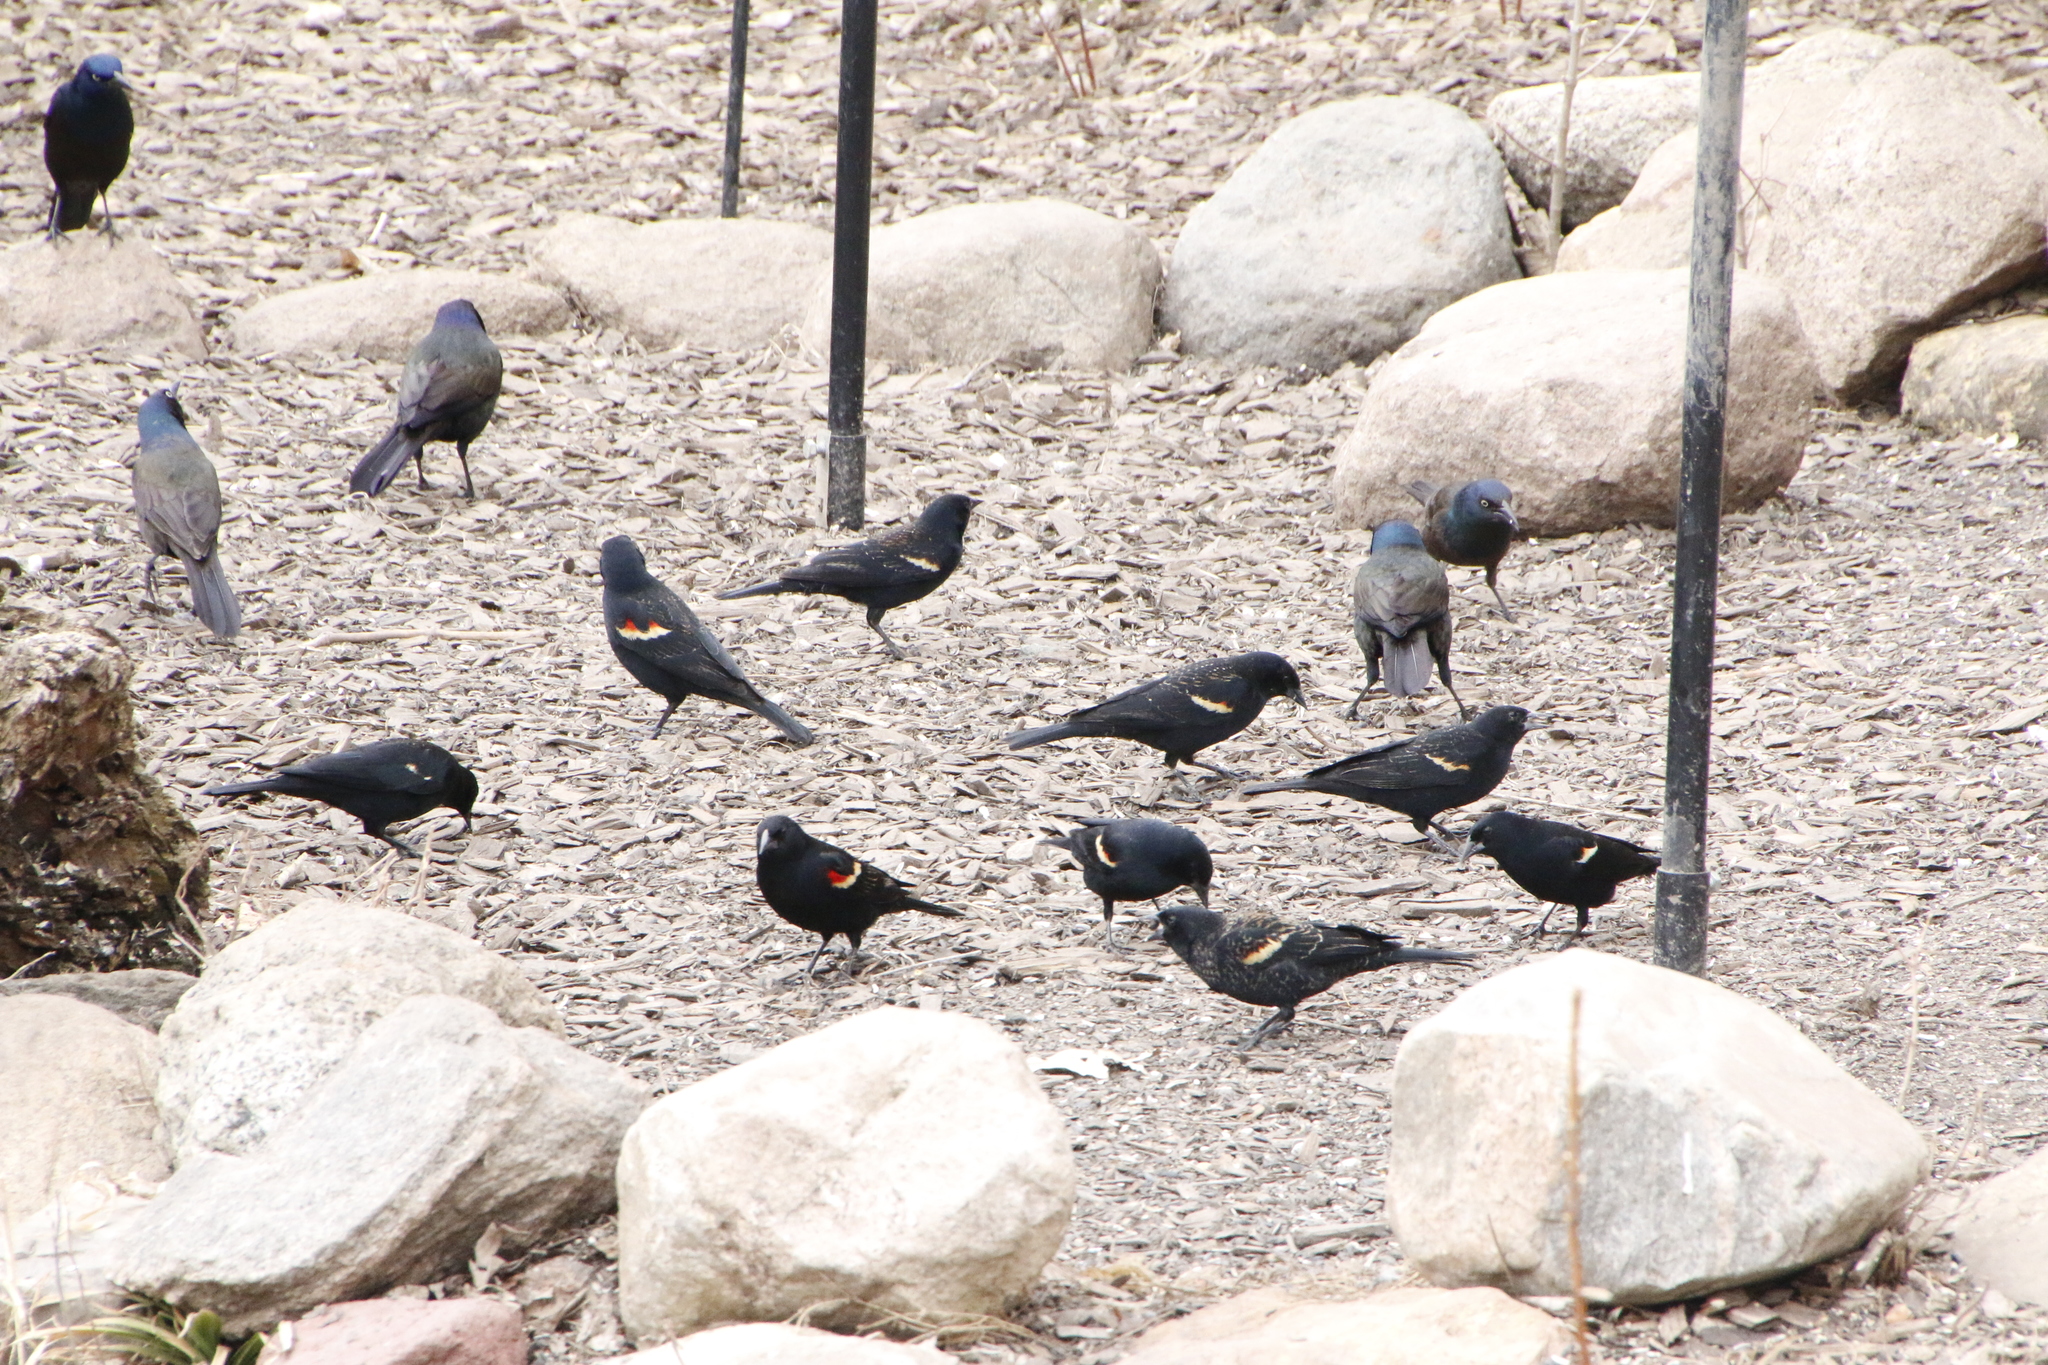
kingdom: Animalia
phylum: Chordata
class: Aves
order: Passeriformes
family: Icteridae
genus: Agelaius
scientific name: Agelaius phoeniceus
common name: Red-winged blackbird
